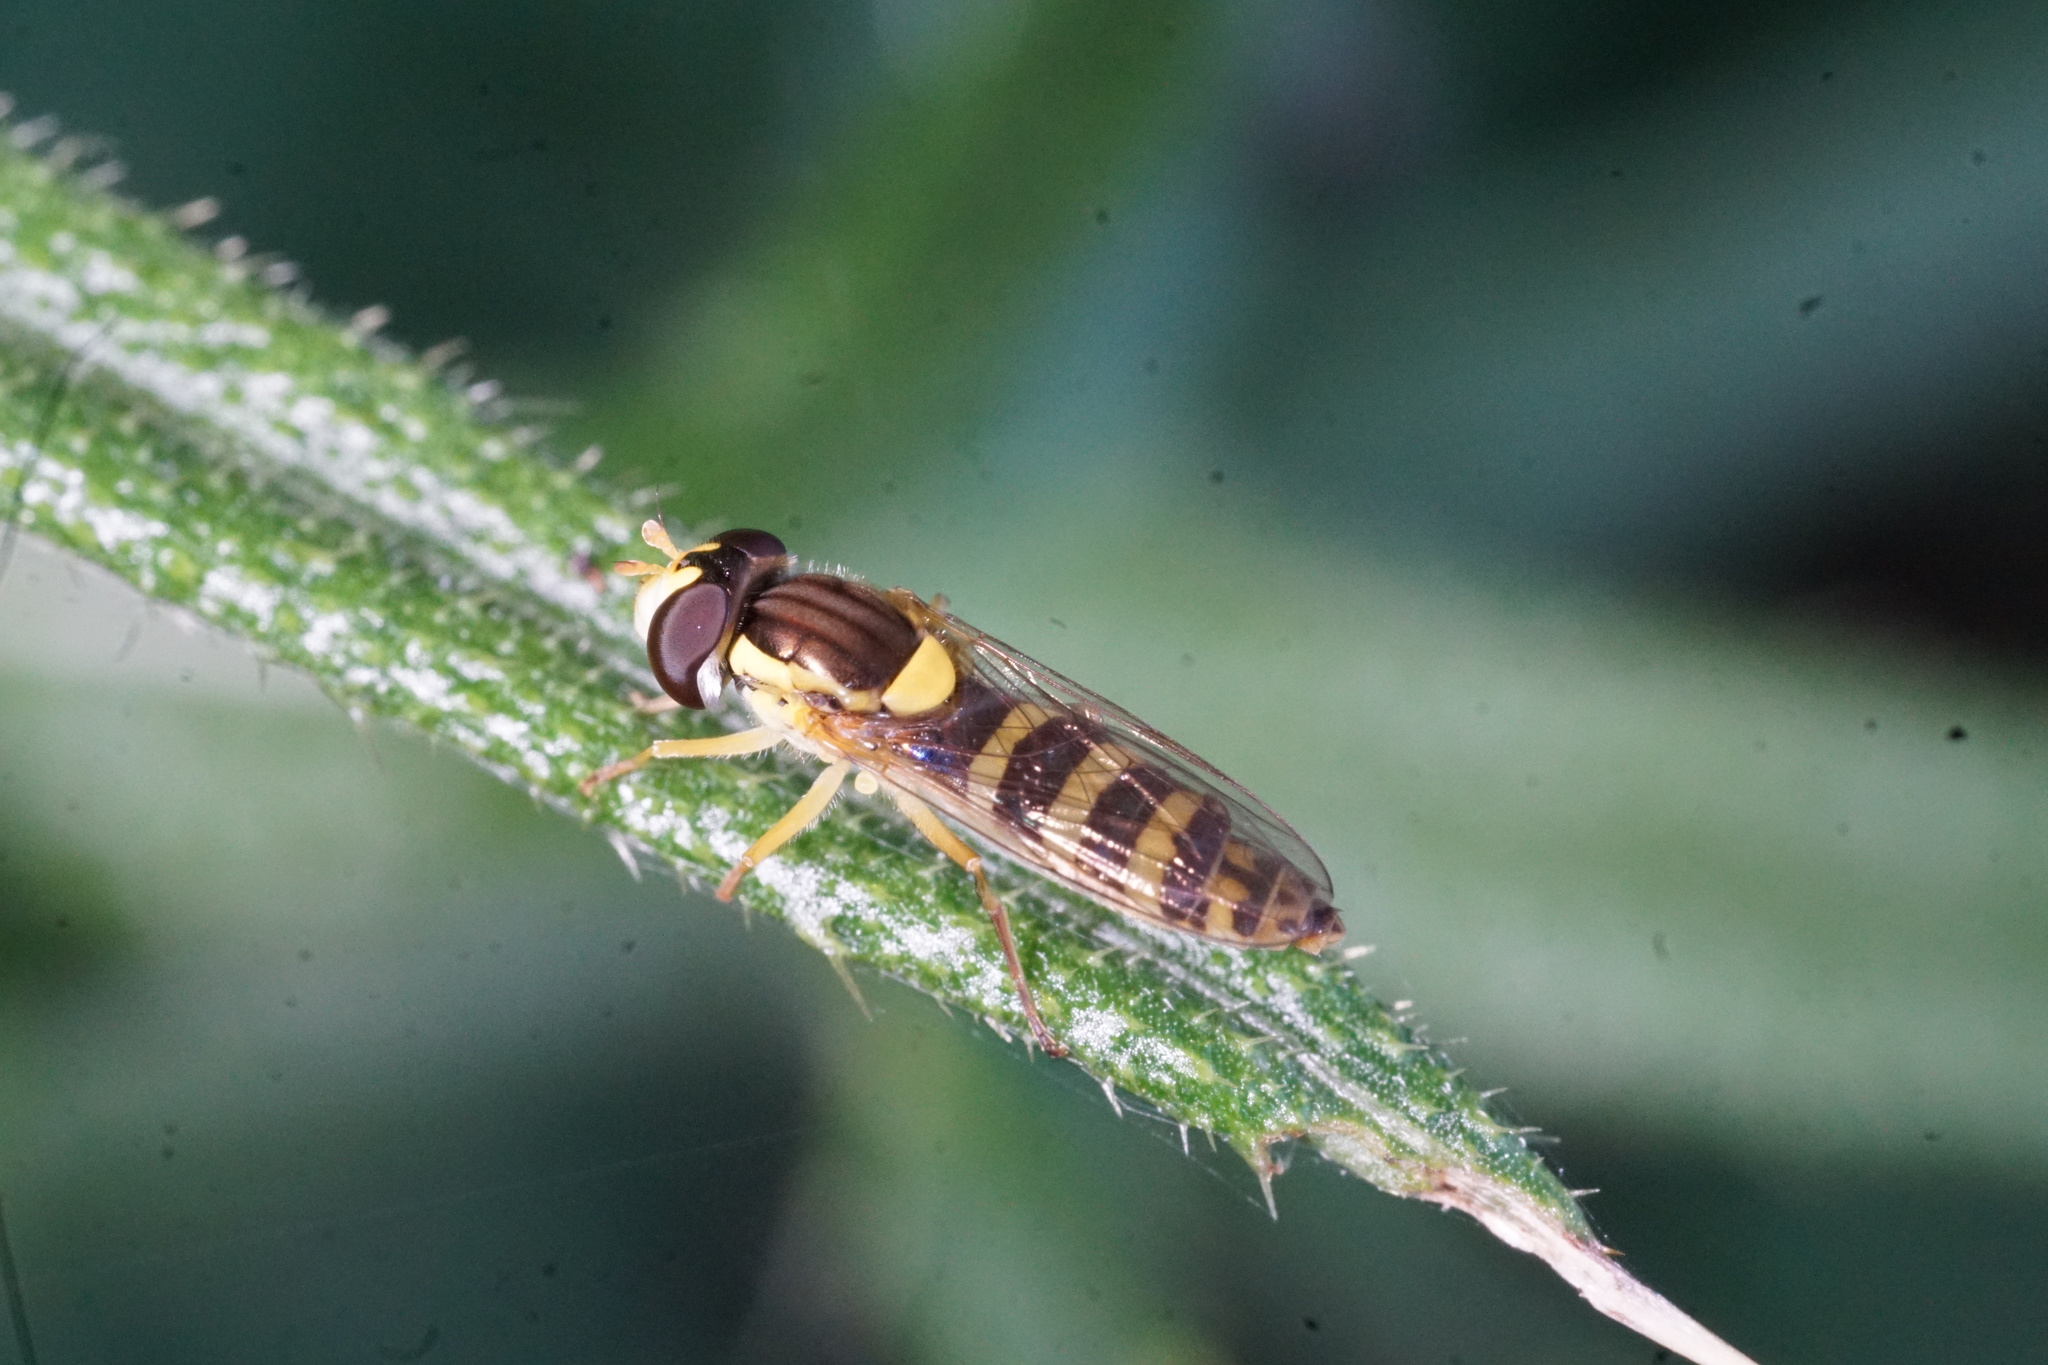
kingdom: Animalia
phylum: Arthropoda
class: Insecta
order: Diptera
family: Syrphidae
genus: Sphaerophoria
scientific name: Sphaerophoria
